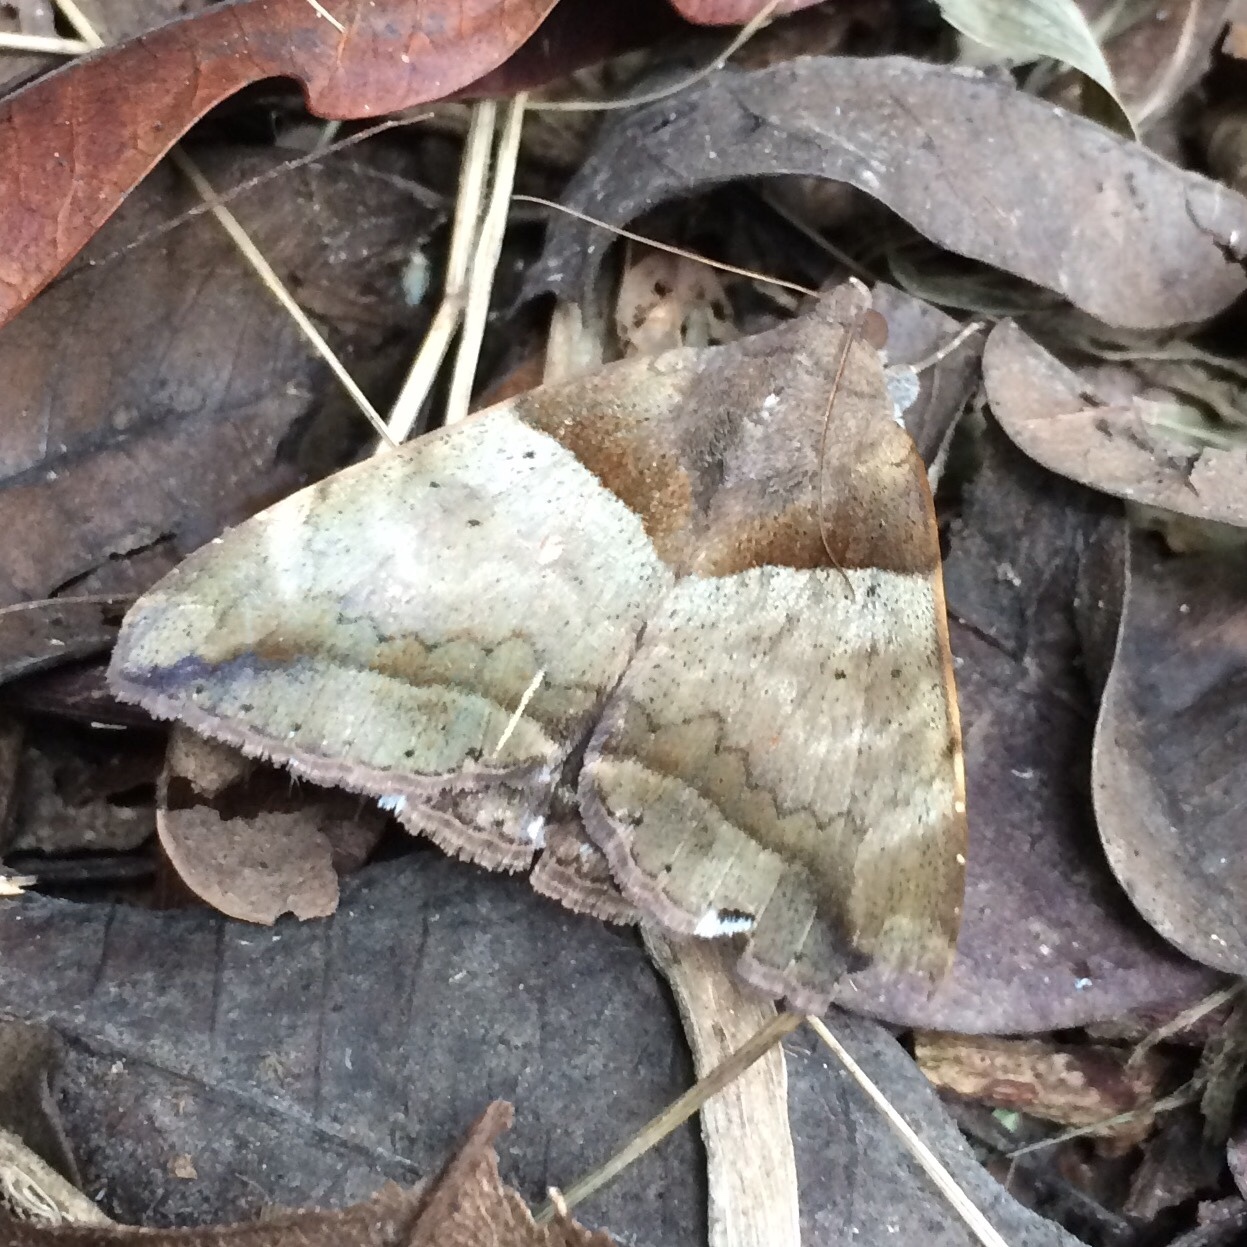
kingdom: Animalia
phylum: Arthropoda
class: Insecta
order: Lepidoptera
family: Erebidae
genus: Achaea
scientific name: Achaea lienardi
